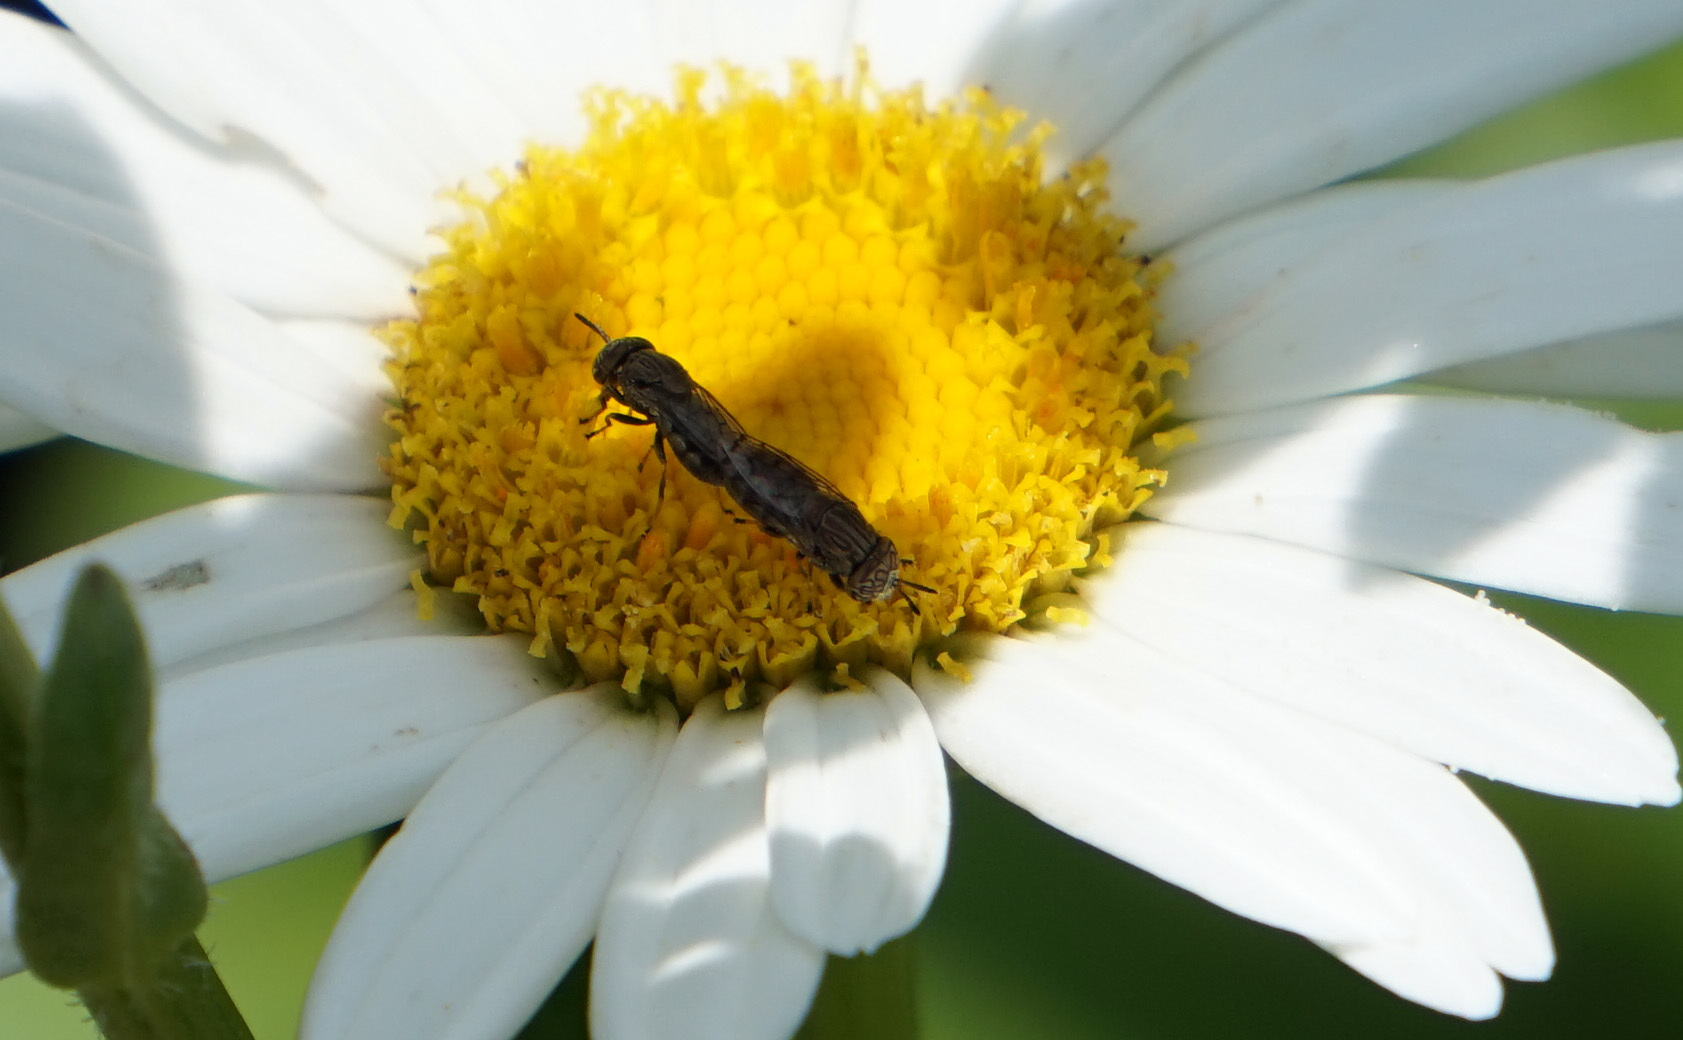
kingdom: Animalia
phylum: Arthropoda
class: Insecta
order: Diptera
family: Syrphidae
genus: Orthonevra
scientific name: Orthonevra nitida
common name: Wavy mucksucker
